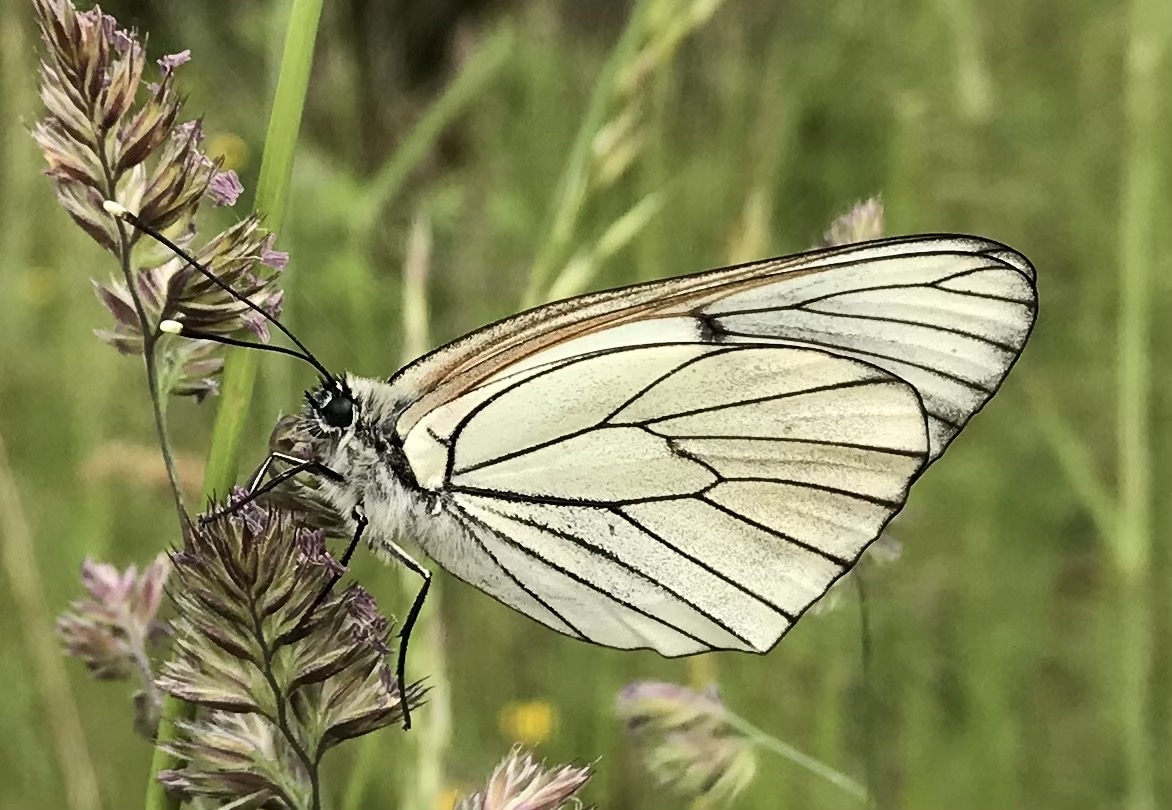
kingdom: Animalia
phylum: Arthropoda
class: Insecta
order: Lepidoptera
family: Pieridae
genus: Aporia
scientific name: Aporia crataegi
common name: Black-veined white
